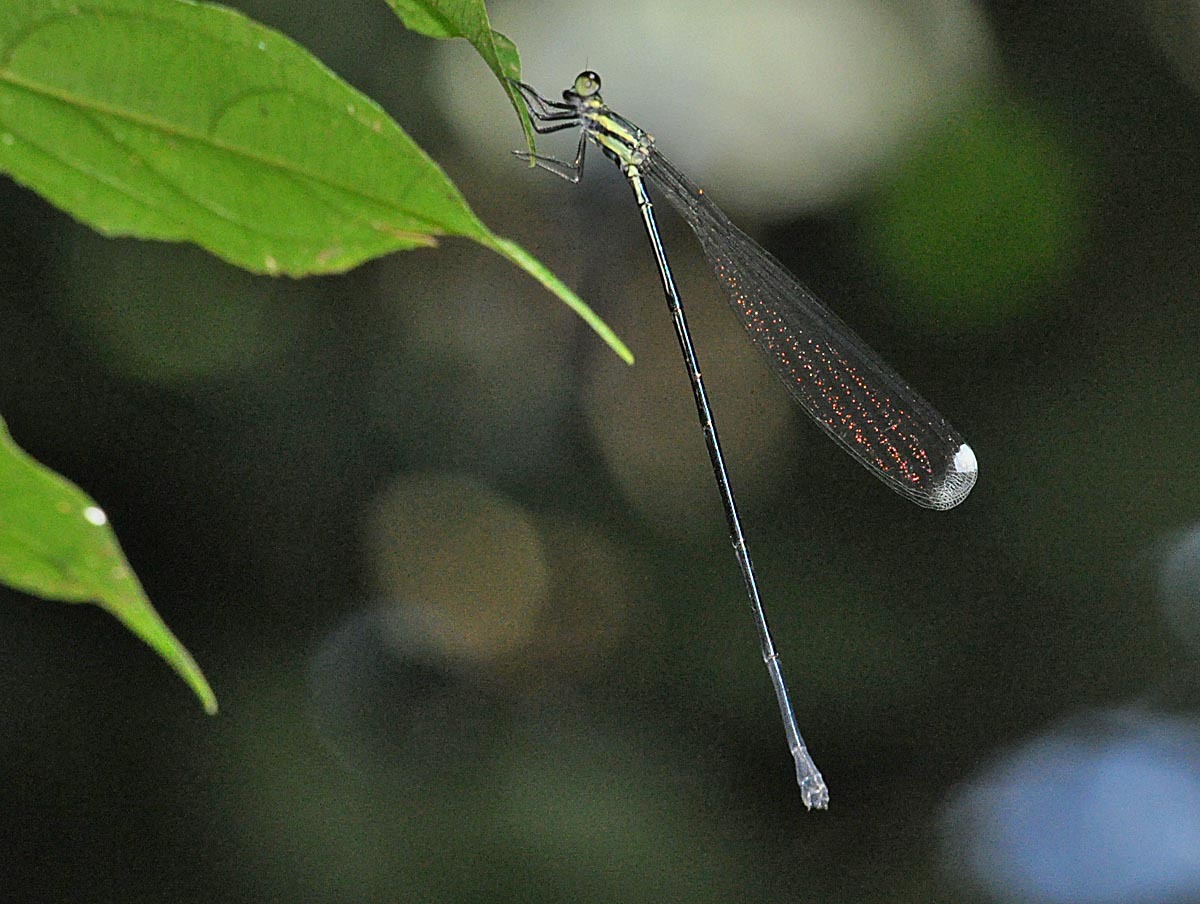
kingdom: Animalia
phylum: Arthropoda
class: Insecta
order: Odonata
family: Coenagrionidae
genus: Mecistogaster
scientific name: Mecistogaster modesta
